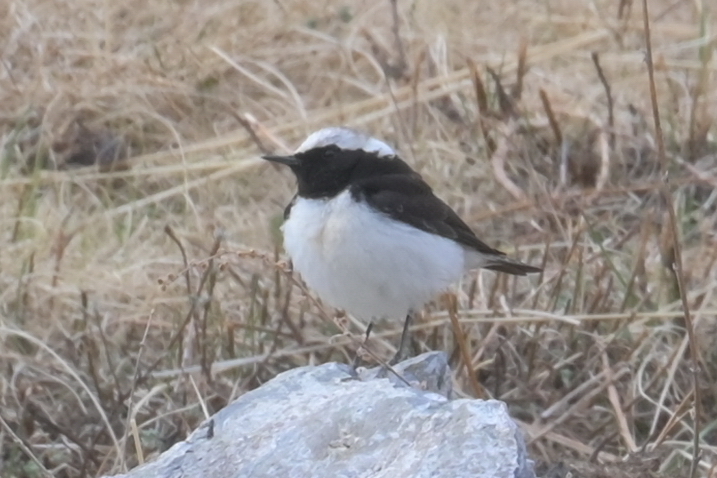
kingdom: Animalia
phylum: Chordata
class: Aves
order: Passeriformes
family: Muscicapidae
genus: Oenanthe
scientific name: Oenanthe pleschanka
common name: Pied wheatear
